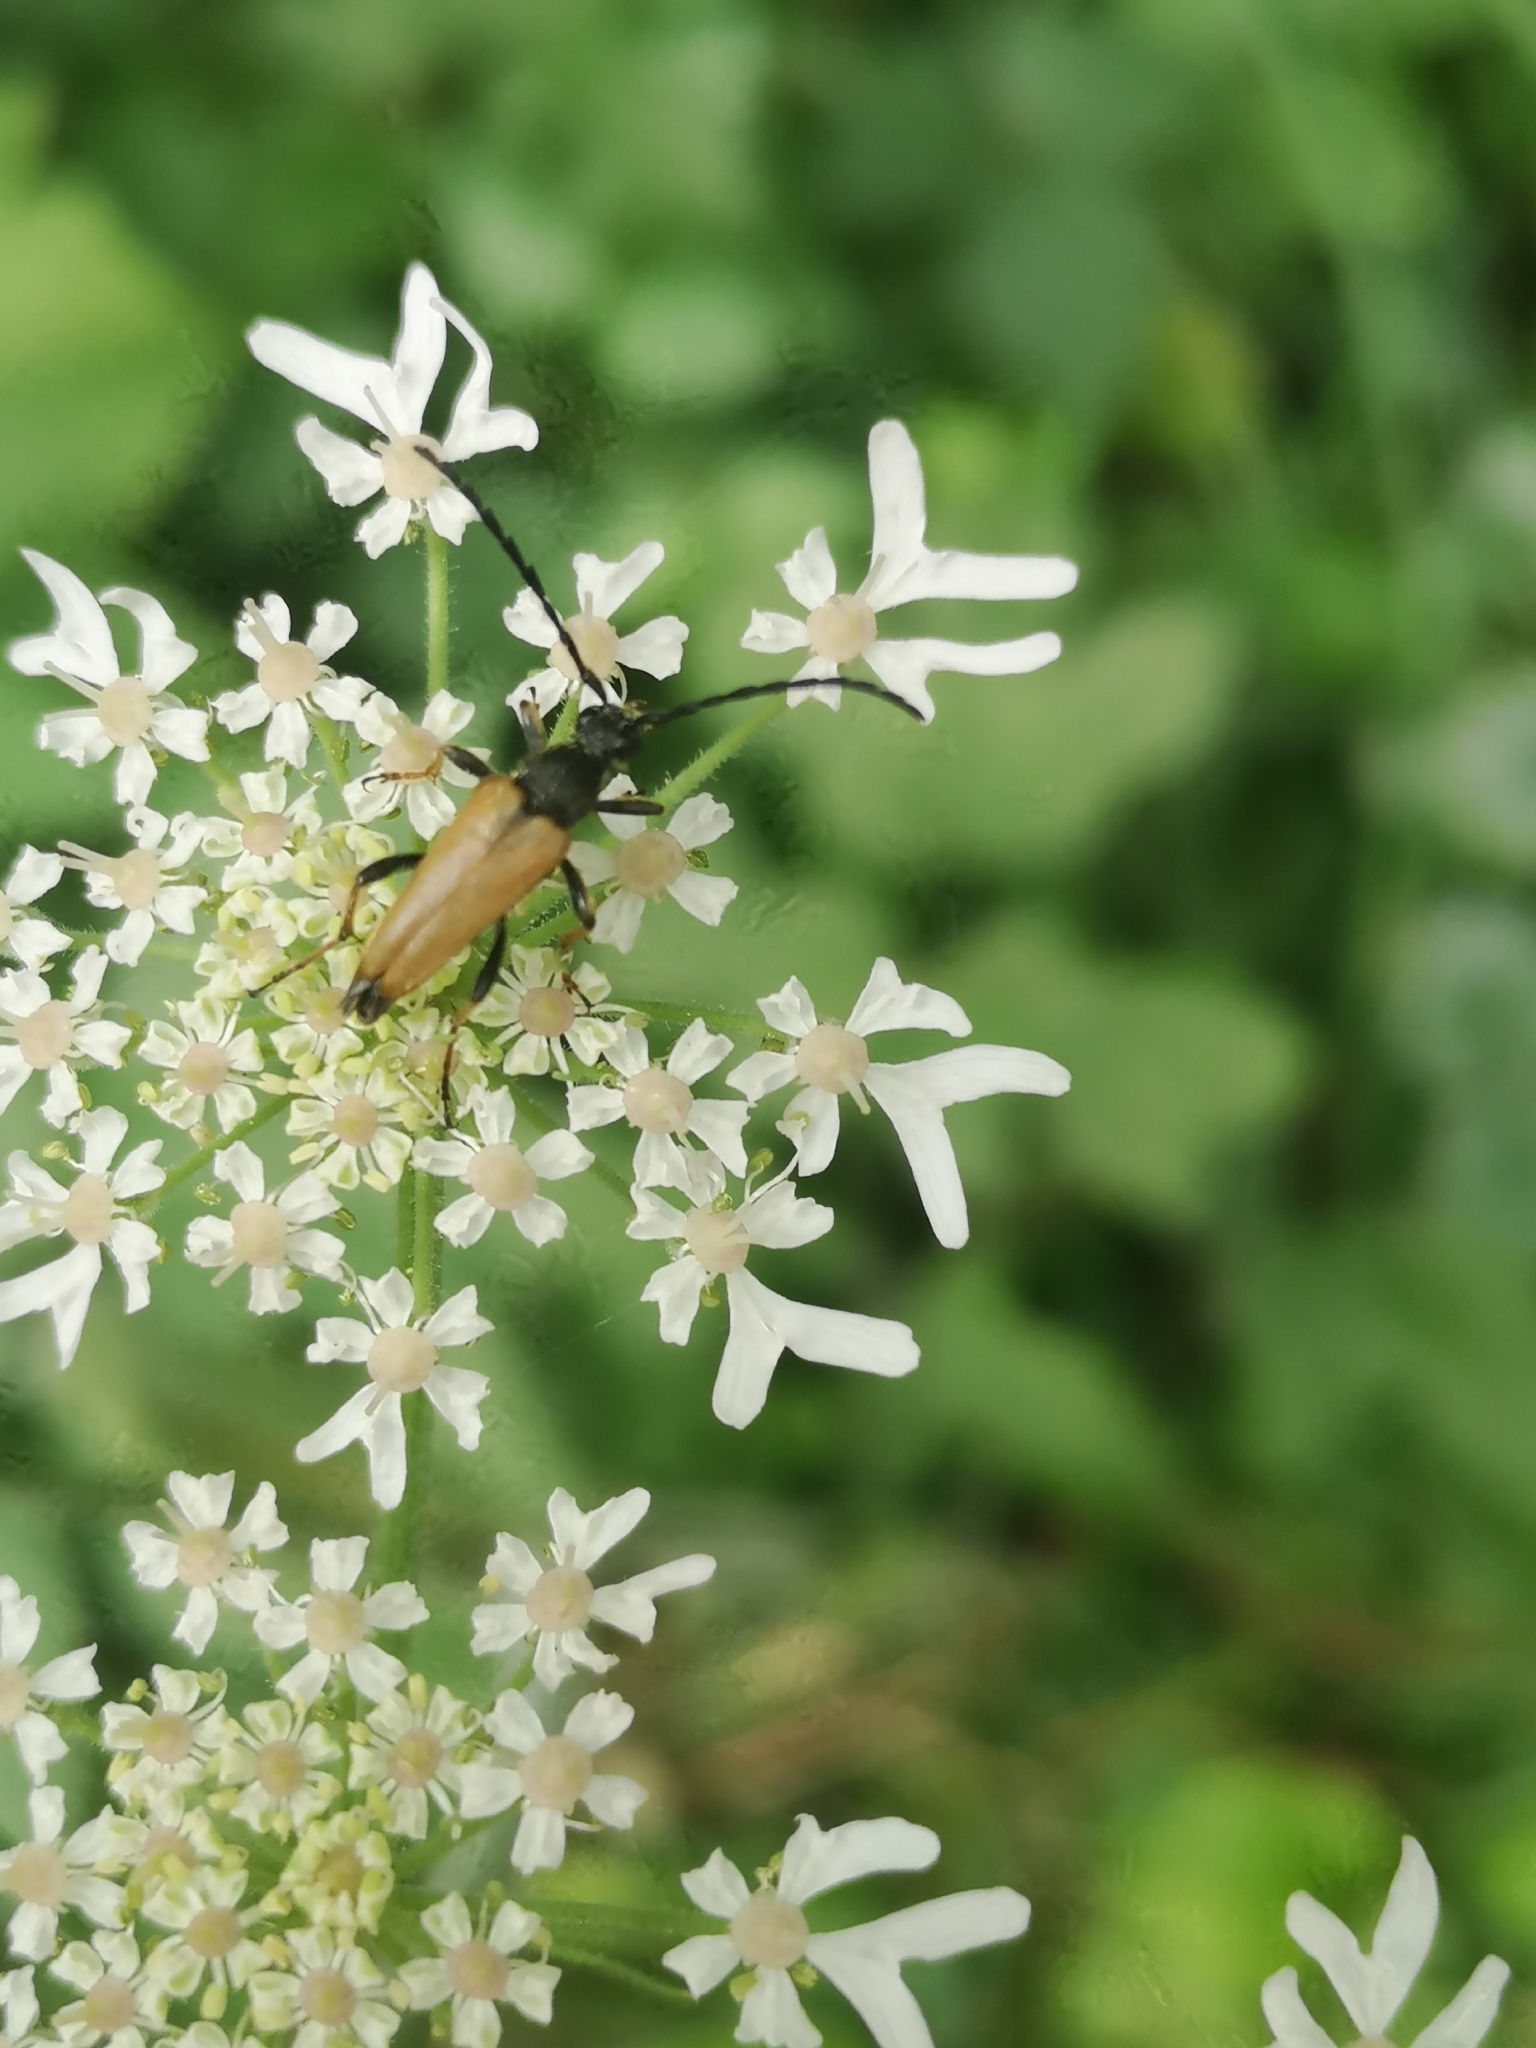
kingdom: Animalia
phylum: Arthropoda
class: Insecta
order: Coleoptera
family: Cerambycidae
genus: Stictoleptura
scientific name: Stictoleptura rubra
